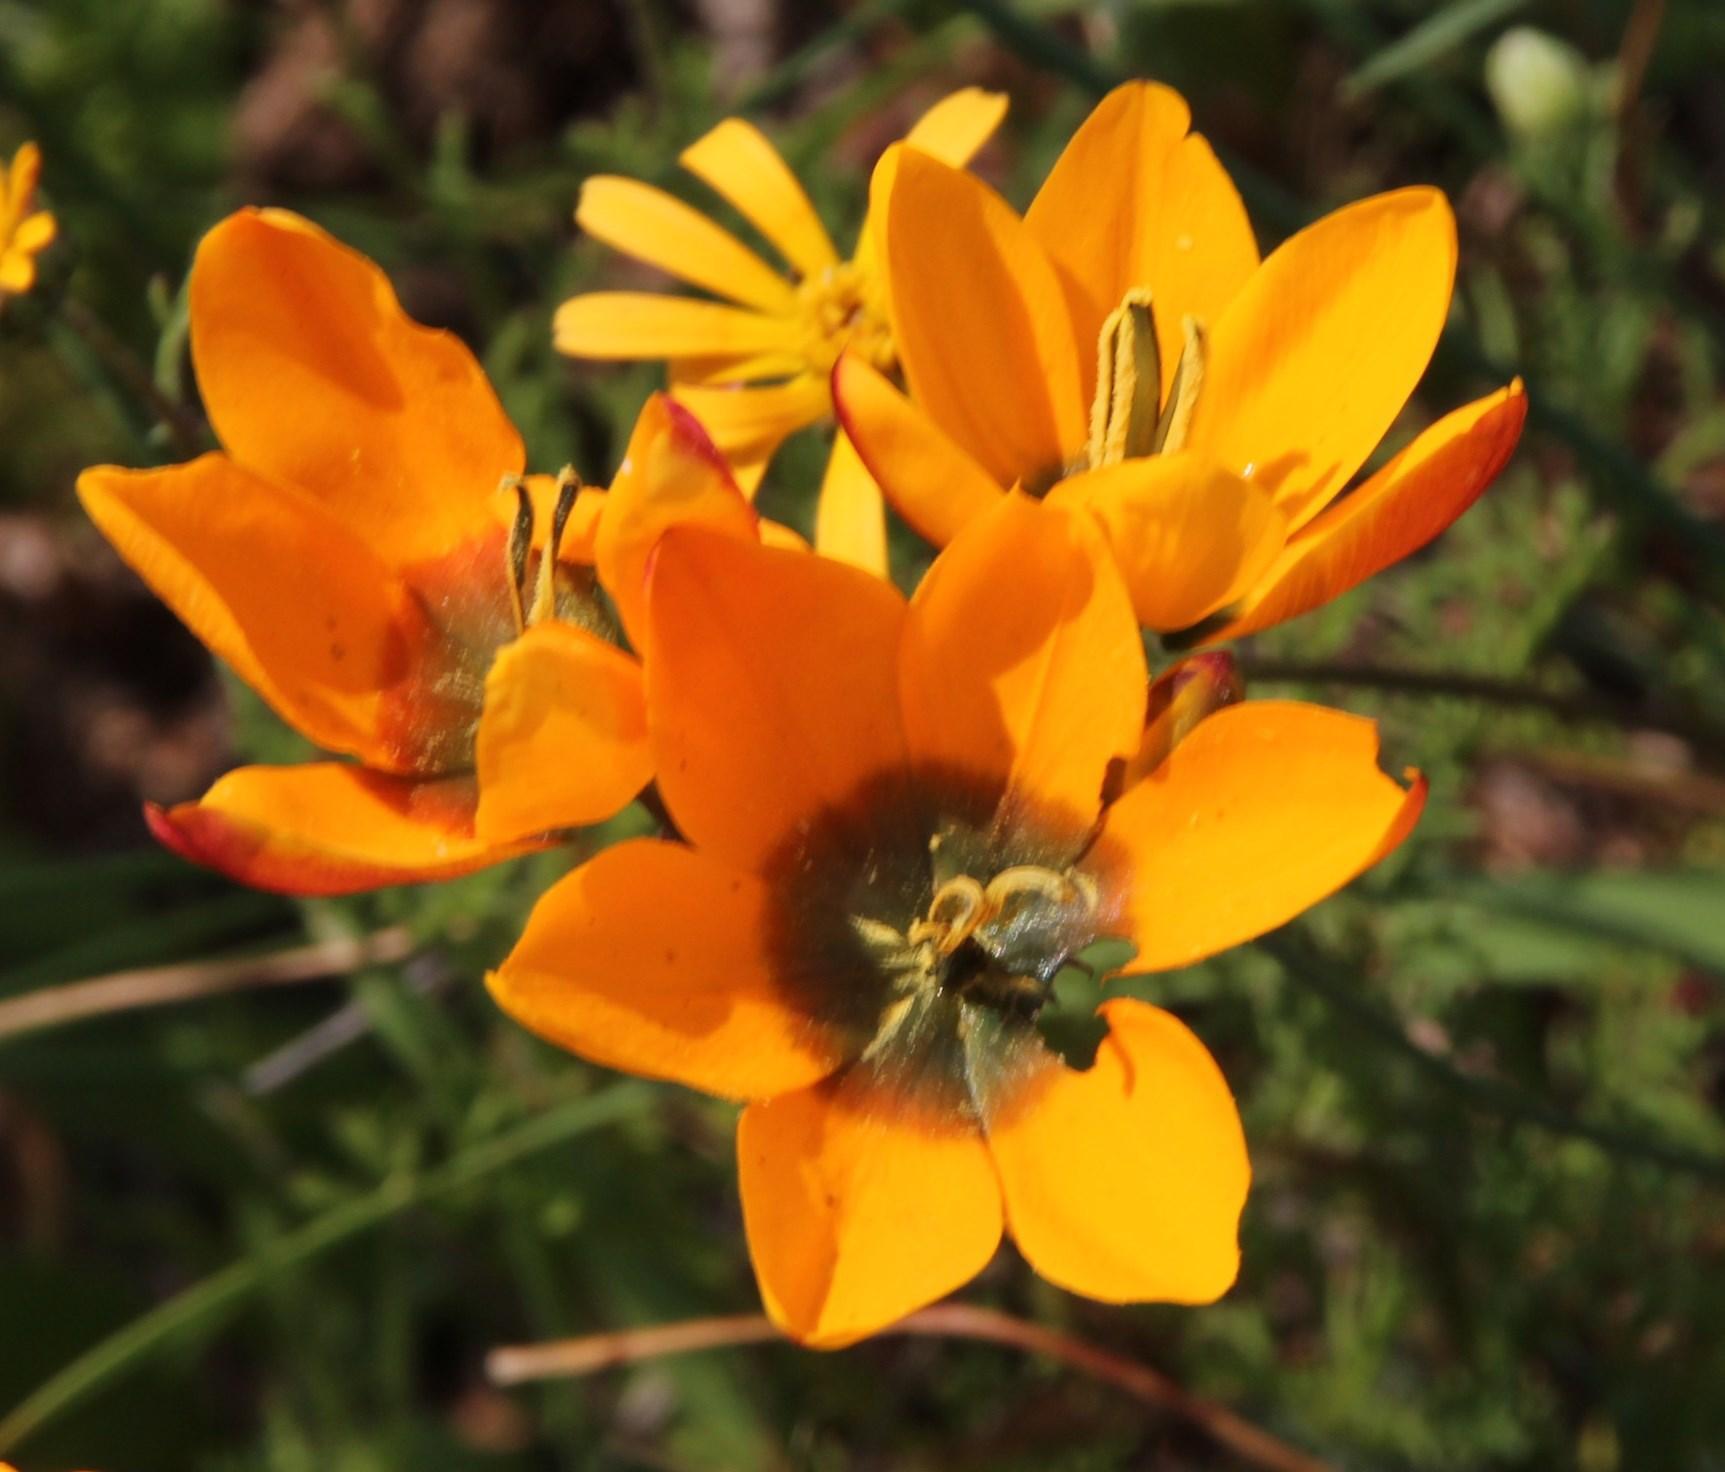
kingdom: Plantae
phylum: Tracheophyta
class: Liliopsida
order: Asparagales
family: Iridaceae
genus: Ixia
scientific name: Ixia maculata
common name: Spotted african cornlily
